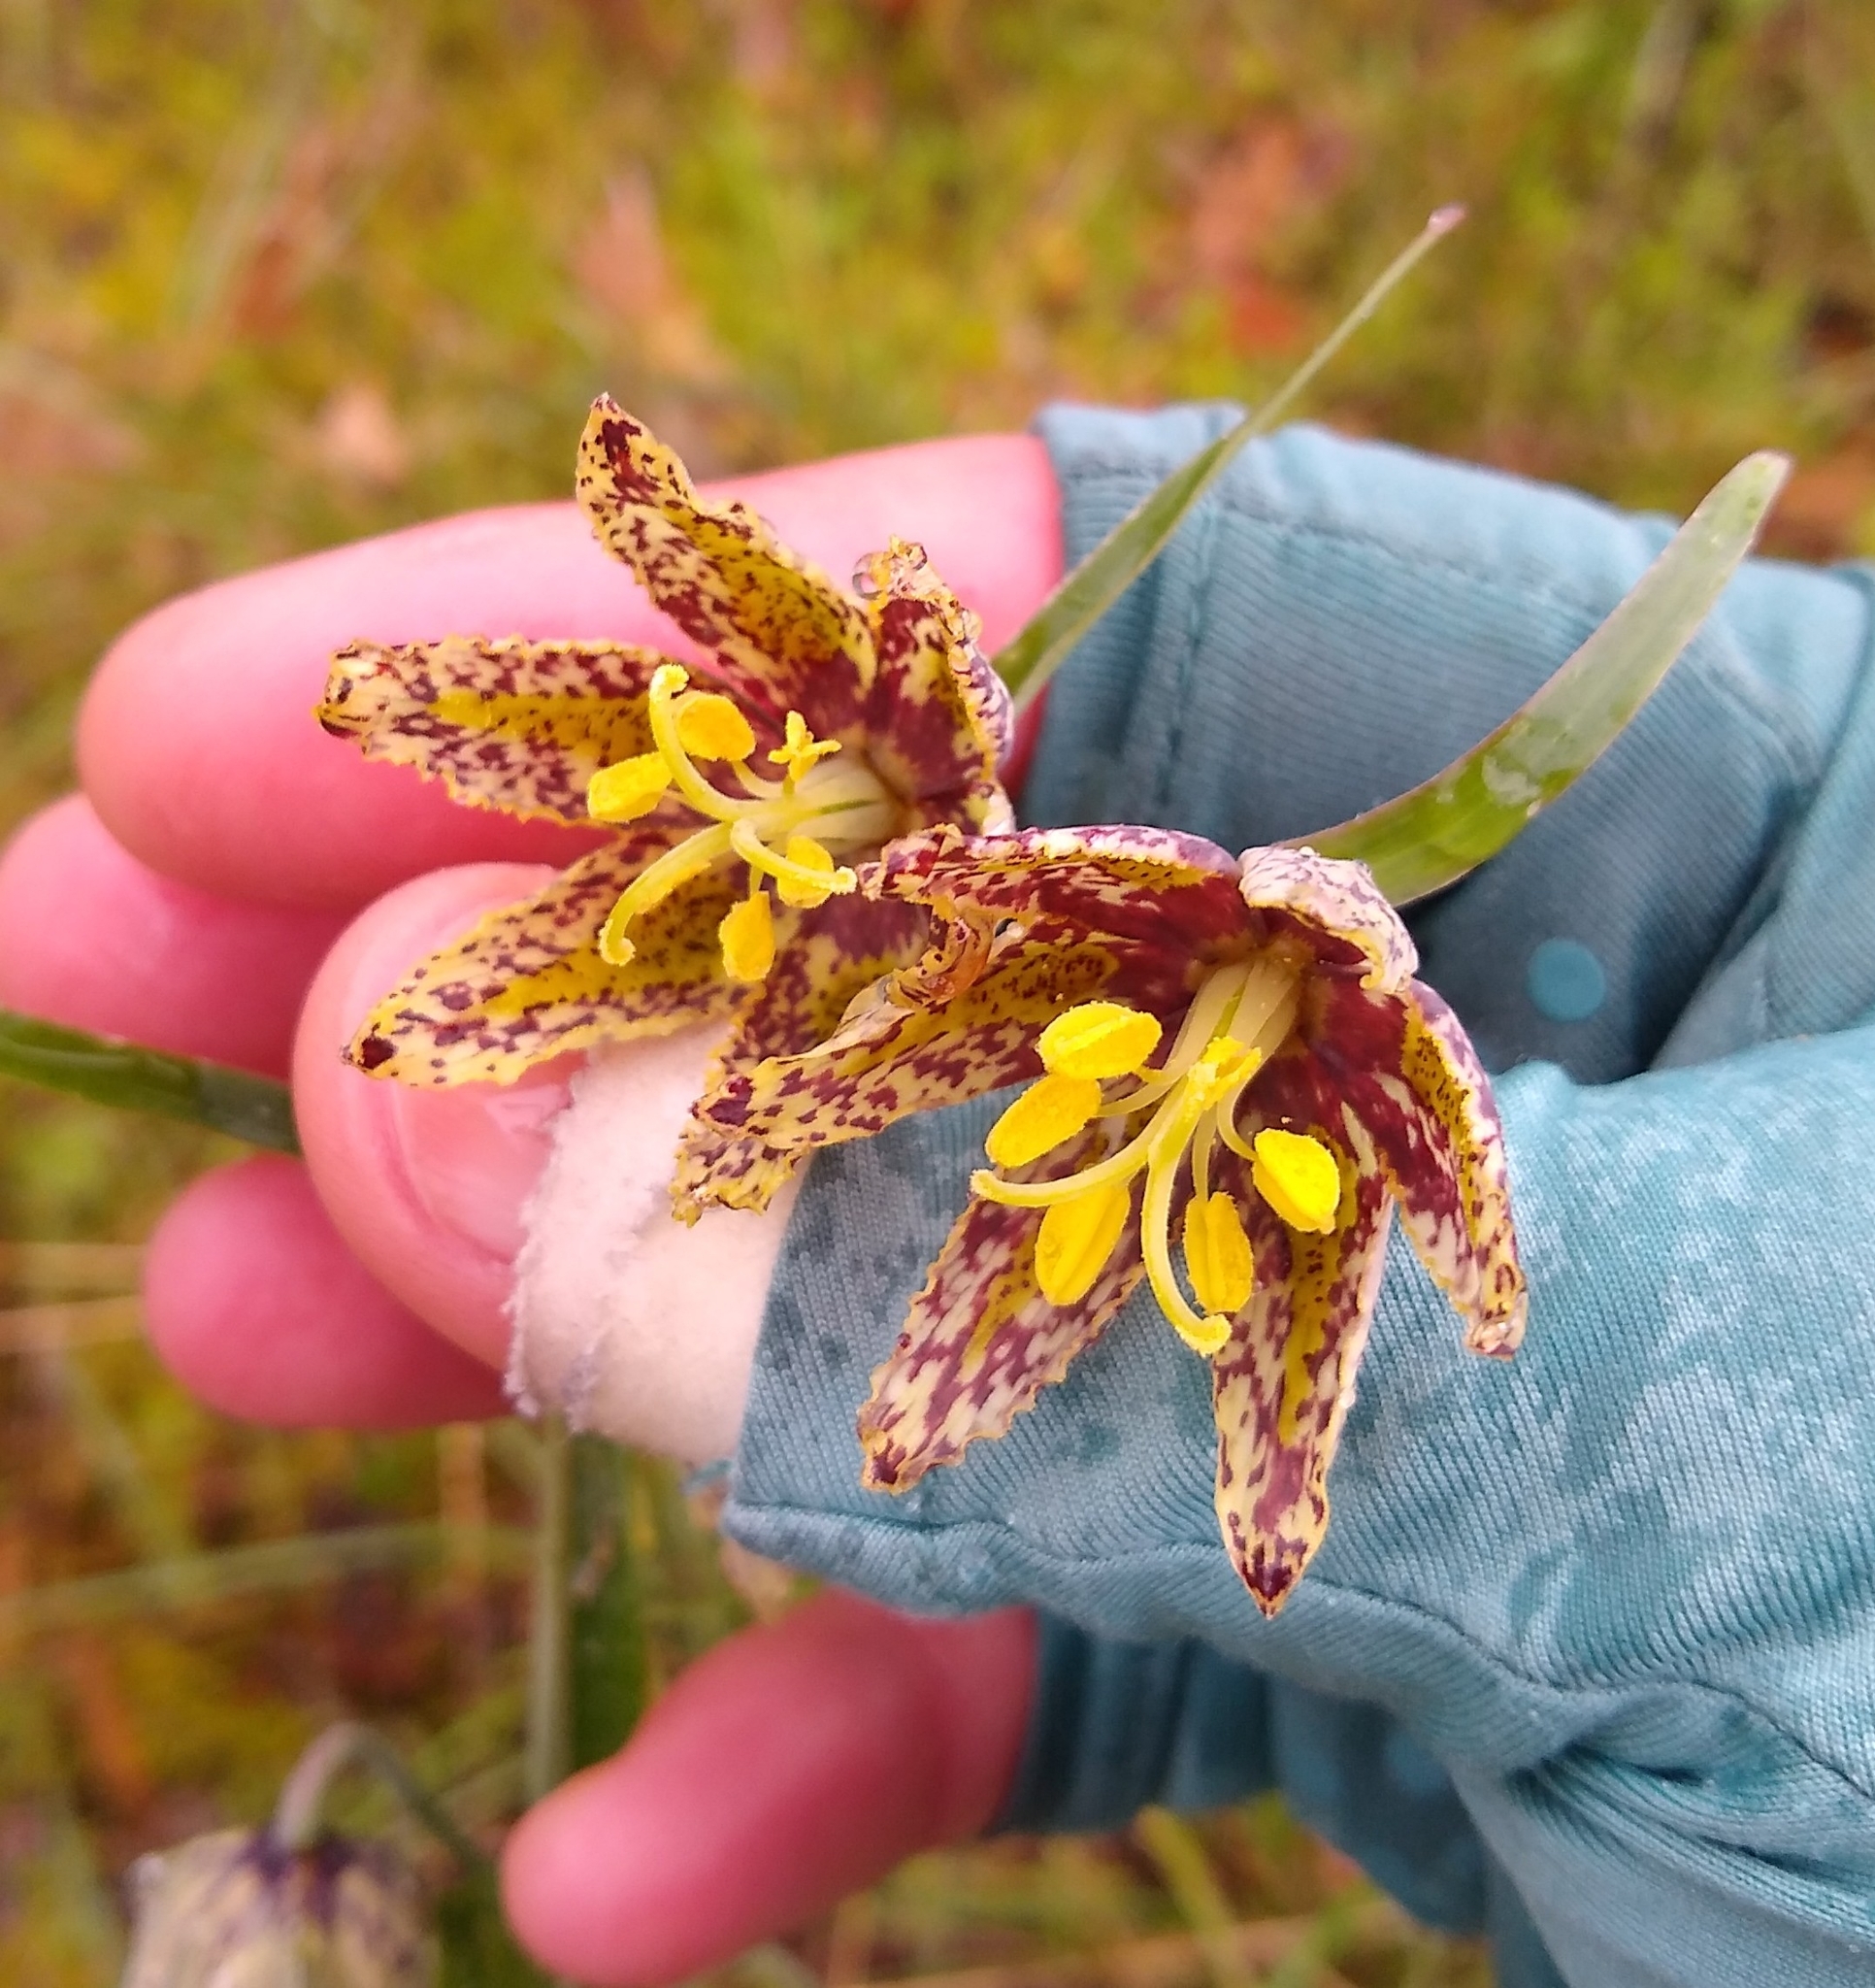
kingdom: Plantae
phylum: Tracheophyta
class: Liliopsida
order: Liliales
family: Liliaceae
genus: Fritillaria
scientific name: Fritillaria affinis
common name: Ojai fritillary
